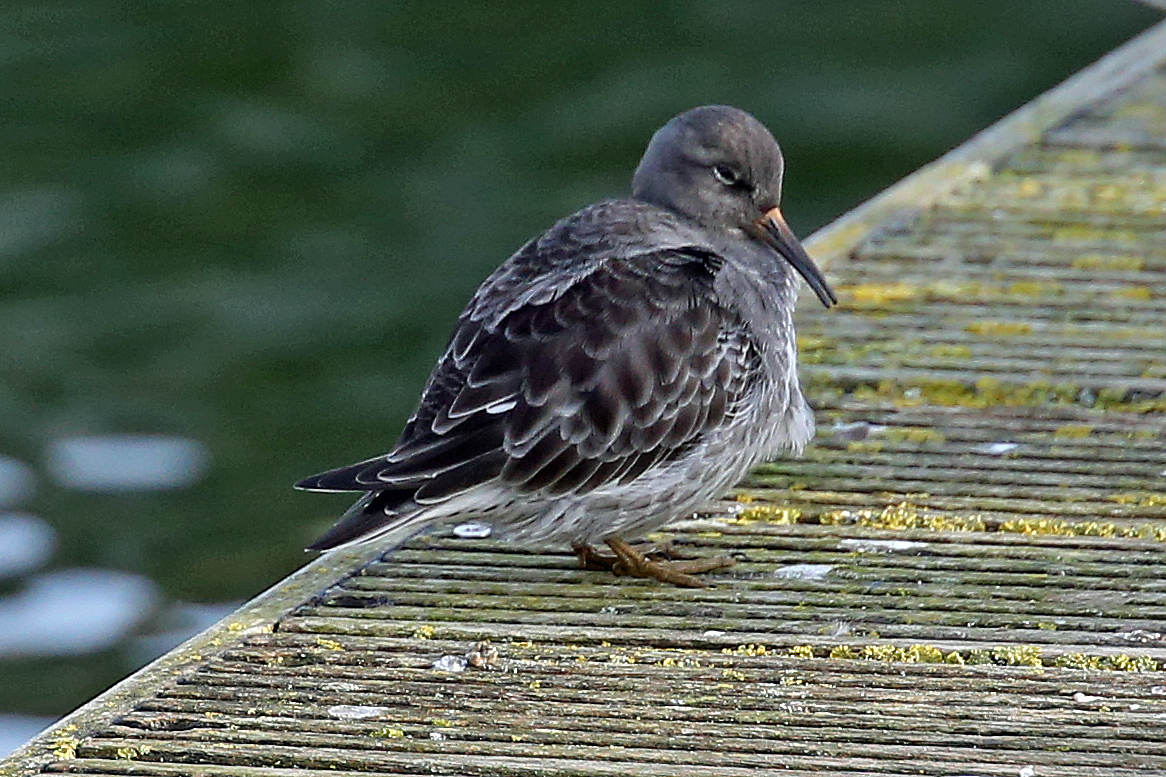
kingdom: Animalia
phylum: Chordata
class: Aves
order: Charadriiformes
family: Scolopacidae
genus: Calidris
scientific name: Calidris maritima
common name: Purple sandpiper
